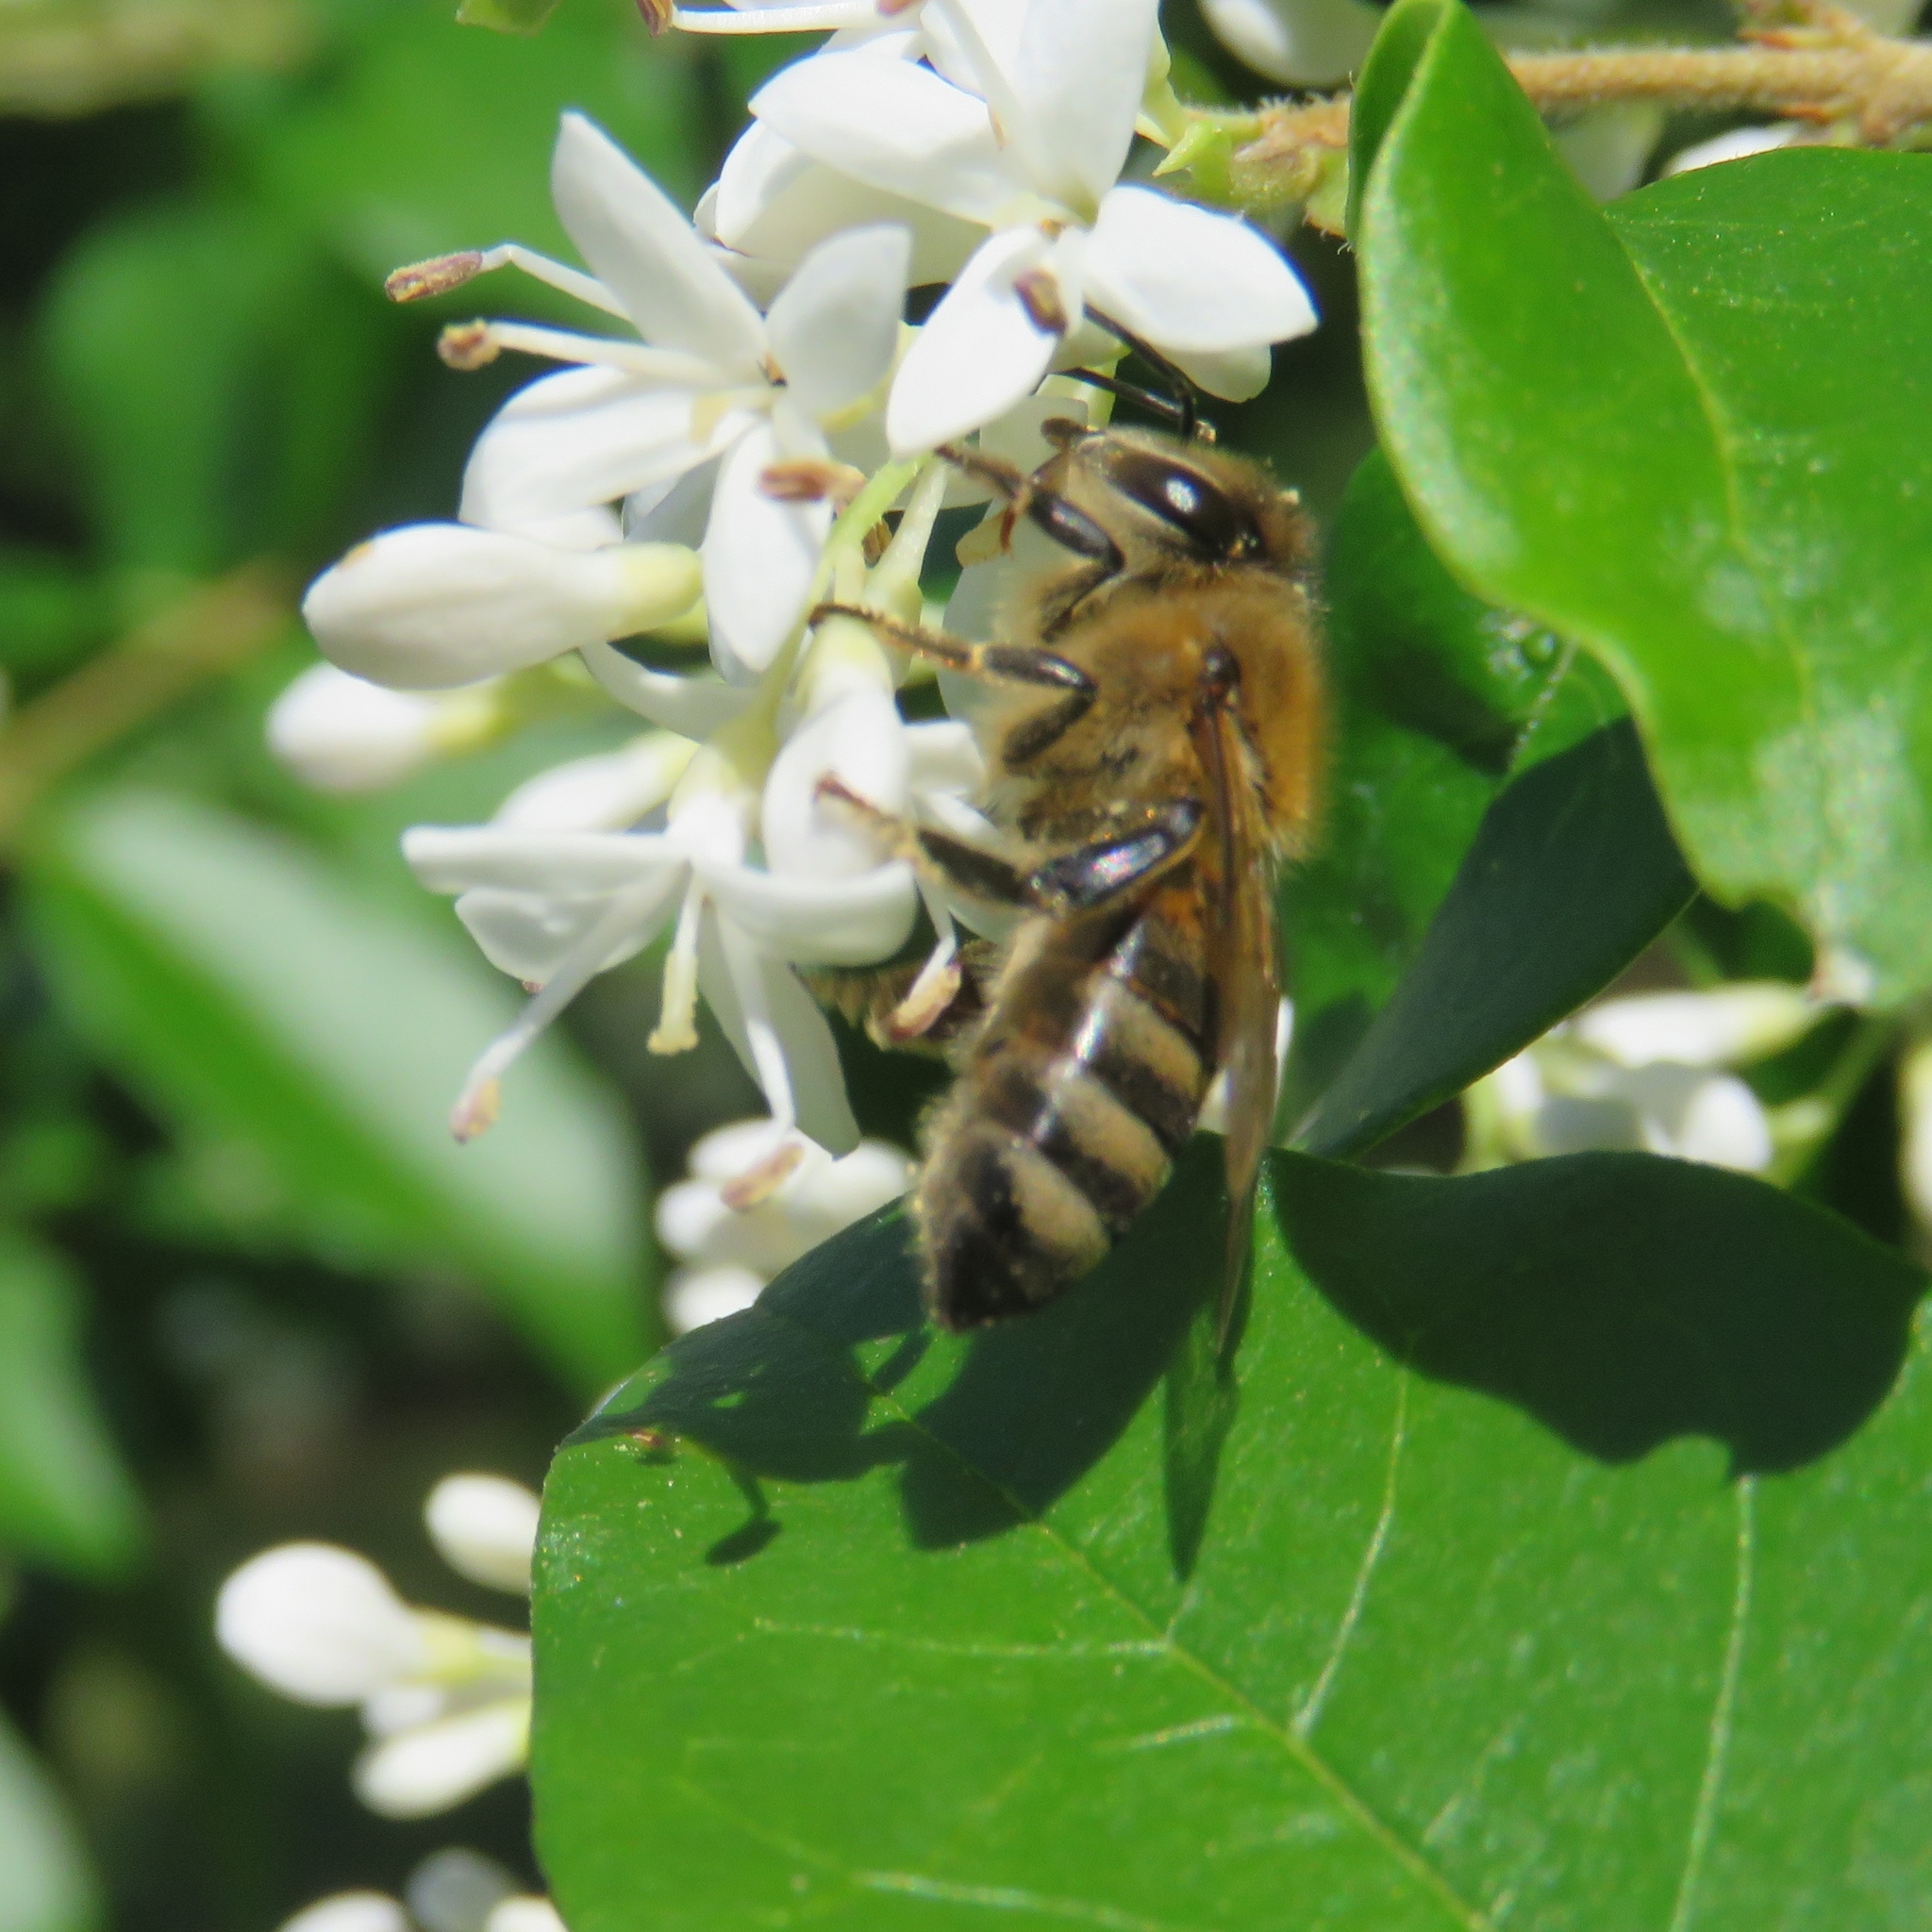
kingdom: Animalia
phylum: Arthropoda
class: Insecta
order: Hymenoptera
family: Apidae
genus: Apis
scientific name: Apis mellifera
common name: Honey bee
